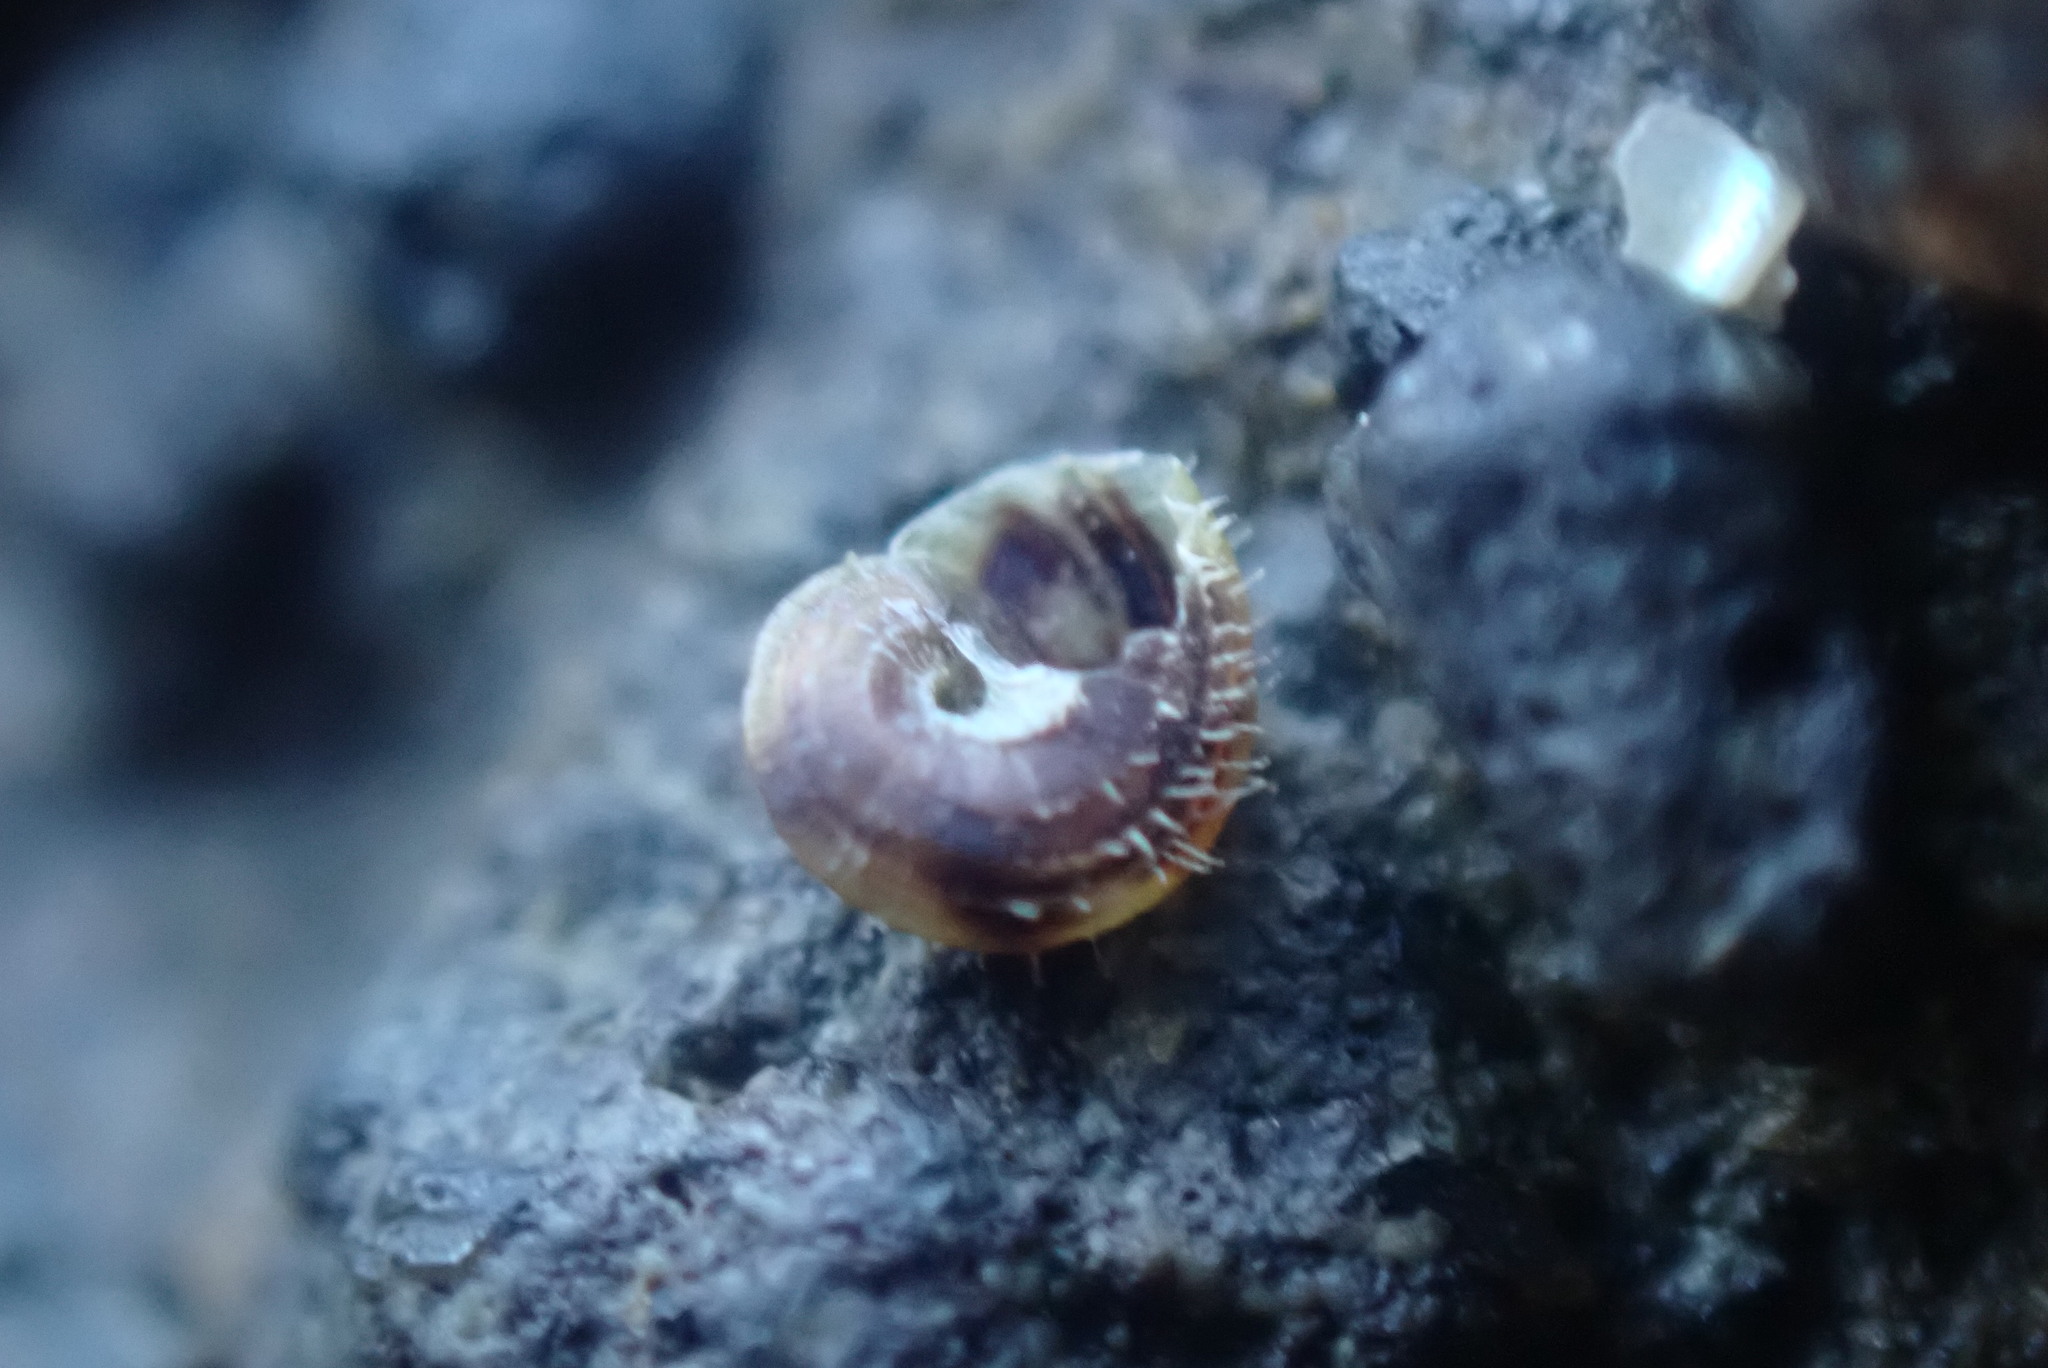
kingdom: Animalia
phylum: Mollusca
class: Gastropoda
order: Littorinimorpha
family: Littorinidae
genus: Risellopsis
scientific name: Risellopsis varia
